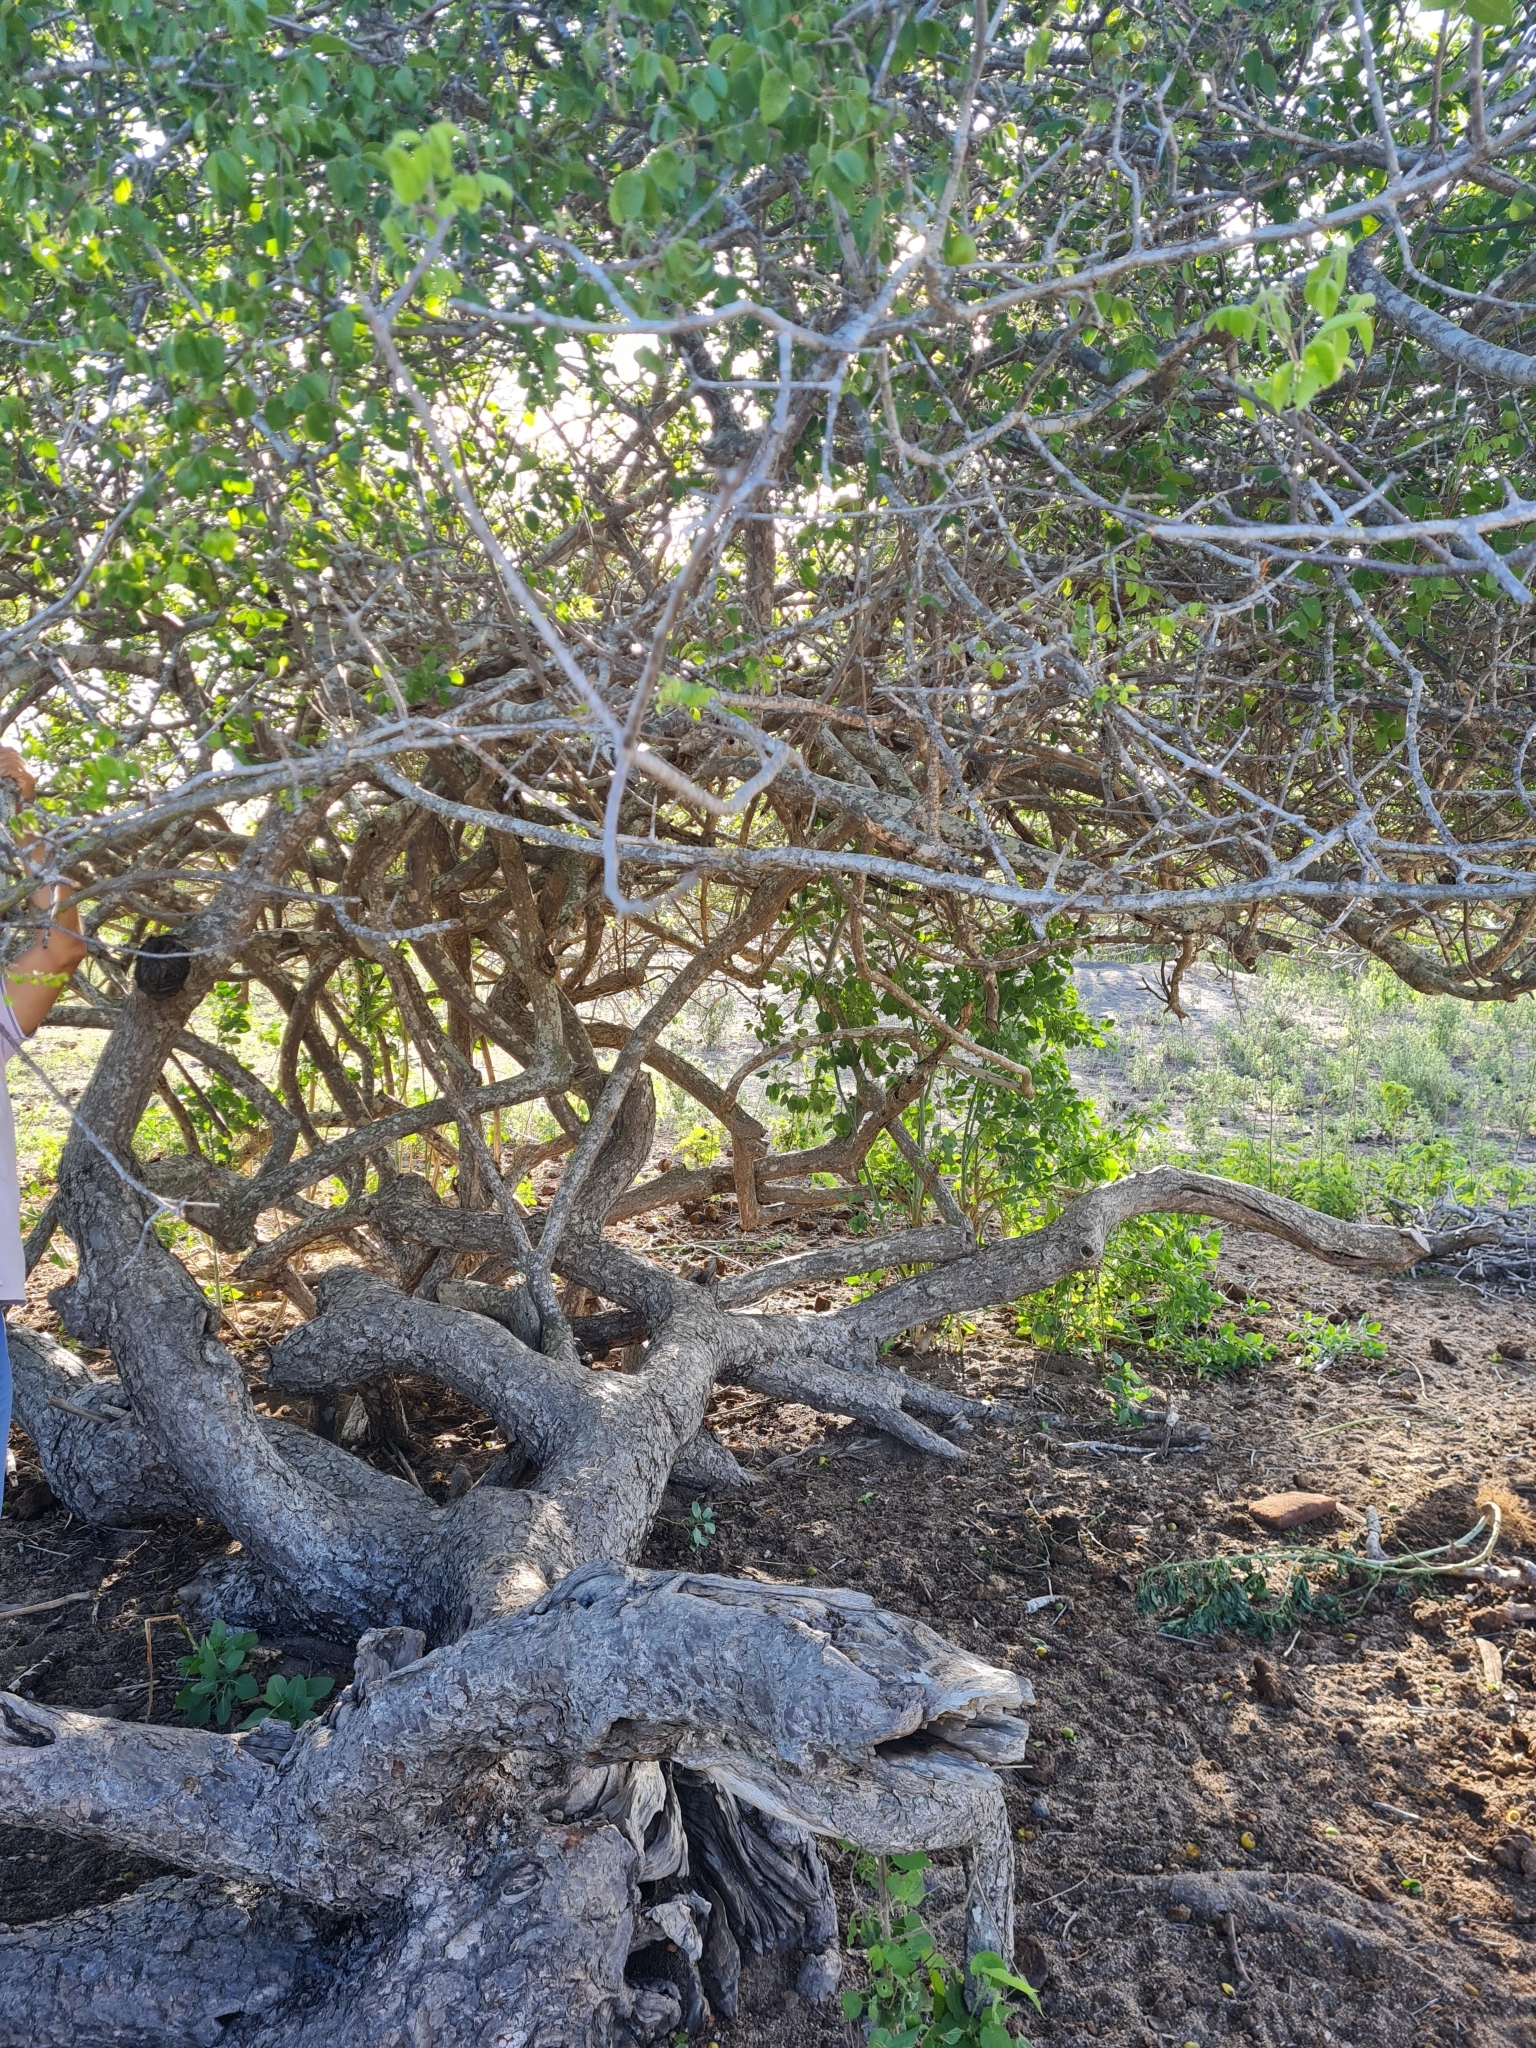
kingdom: Plantae
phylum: Tracheophyta
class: Magnoliopsida
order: Sapindales
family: Anacardiaceae
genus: Spondias
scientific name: Spondias tuberosa
